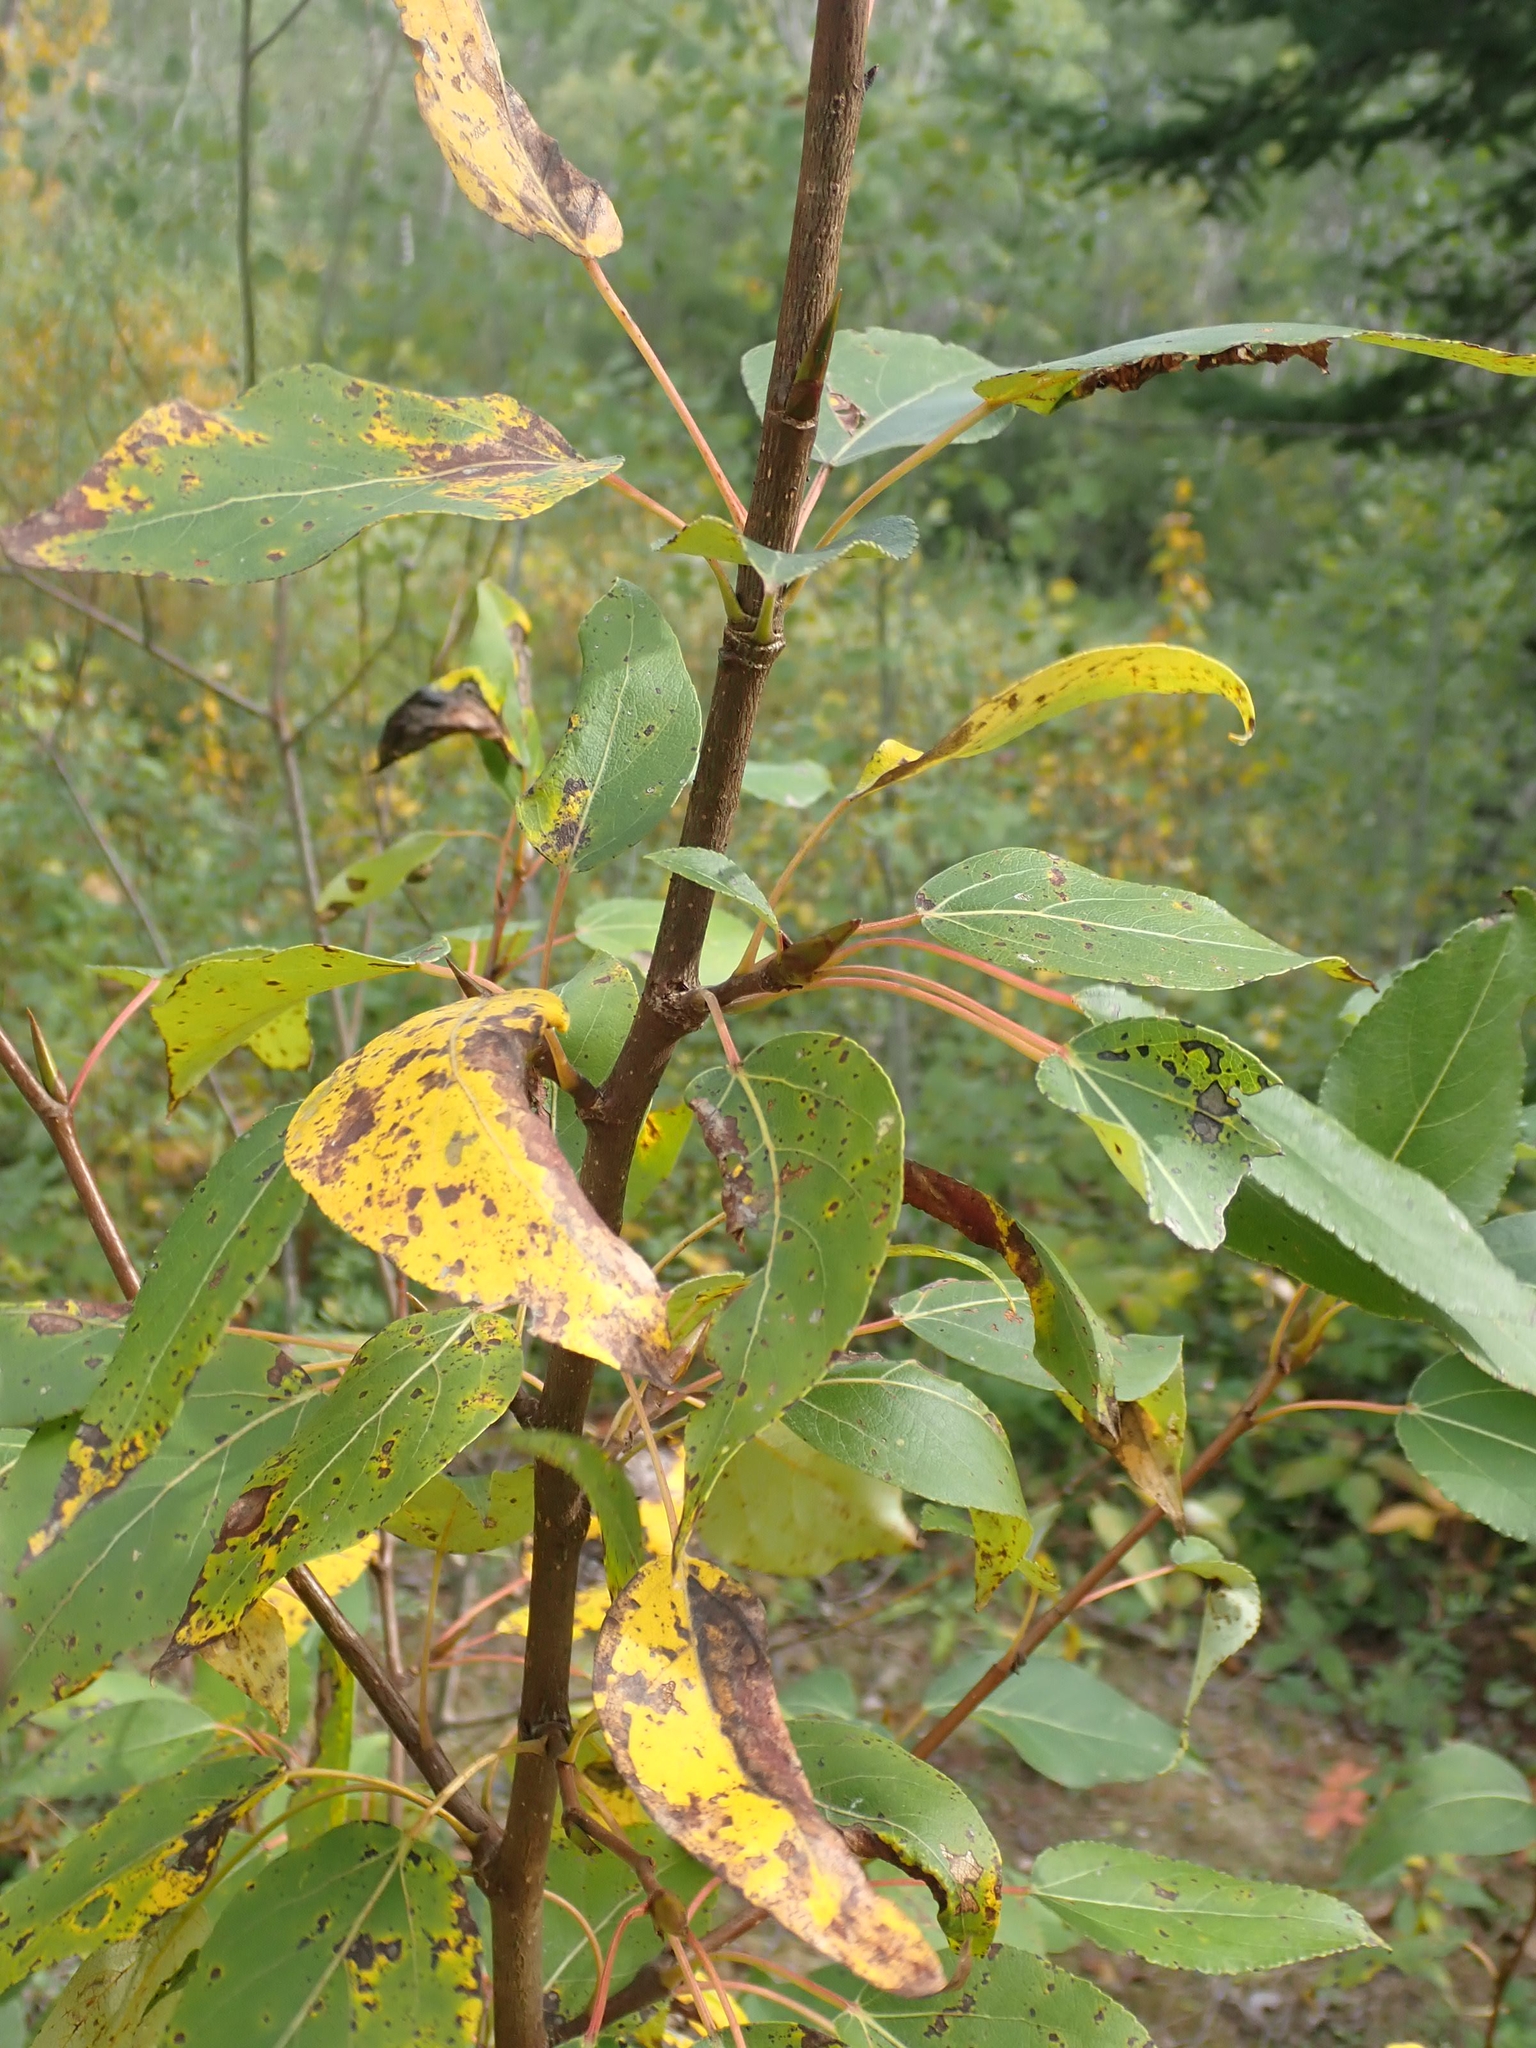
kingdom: Plantae
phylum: Tracheophyta
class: Magnoliopsida
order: Malpighiales
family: Salicaceae
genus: Populus
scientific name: Populus balsamifera
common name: Balsam poplar
